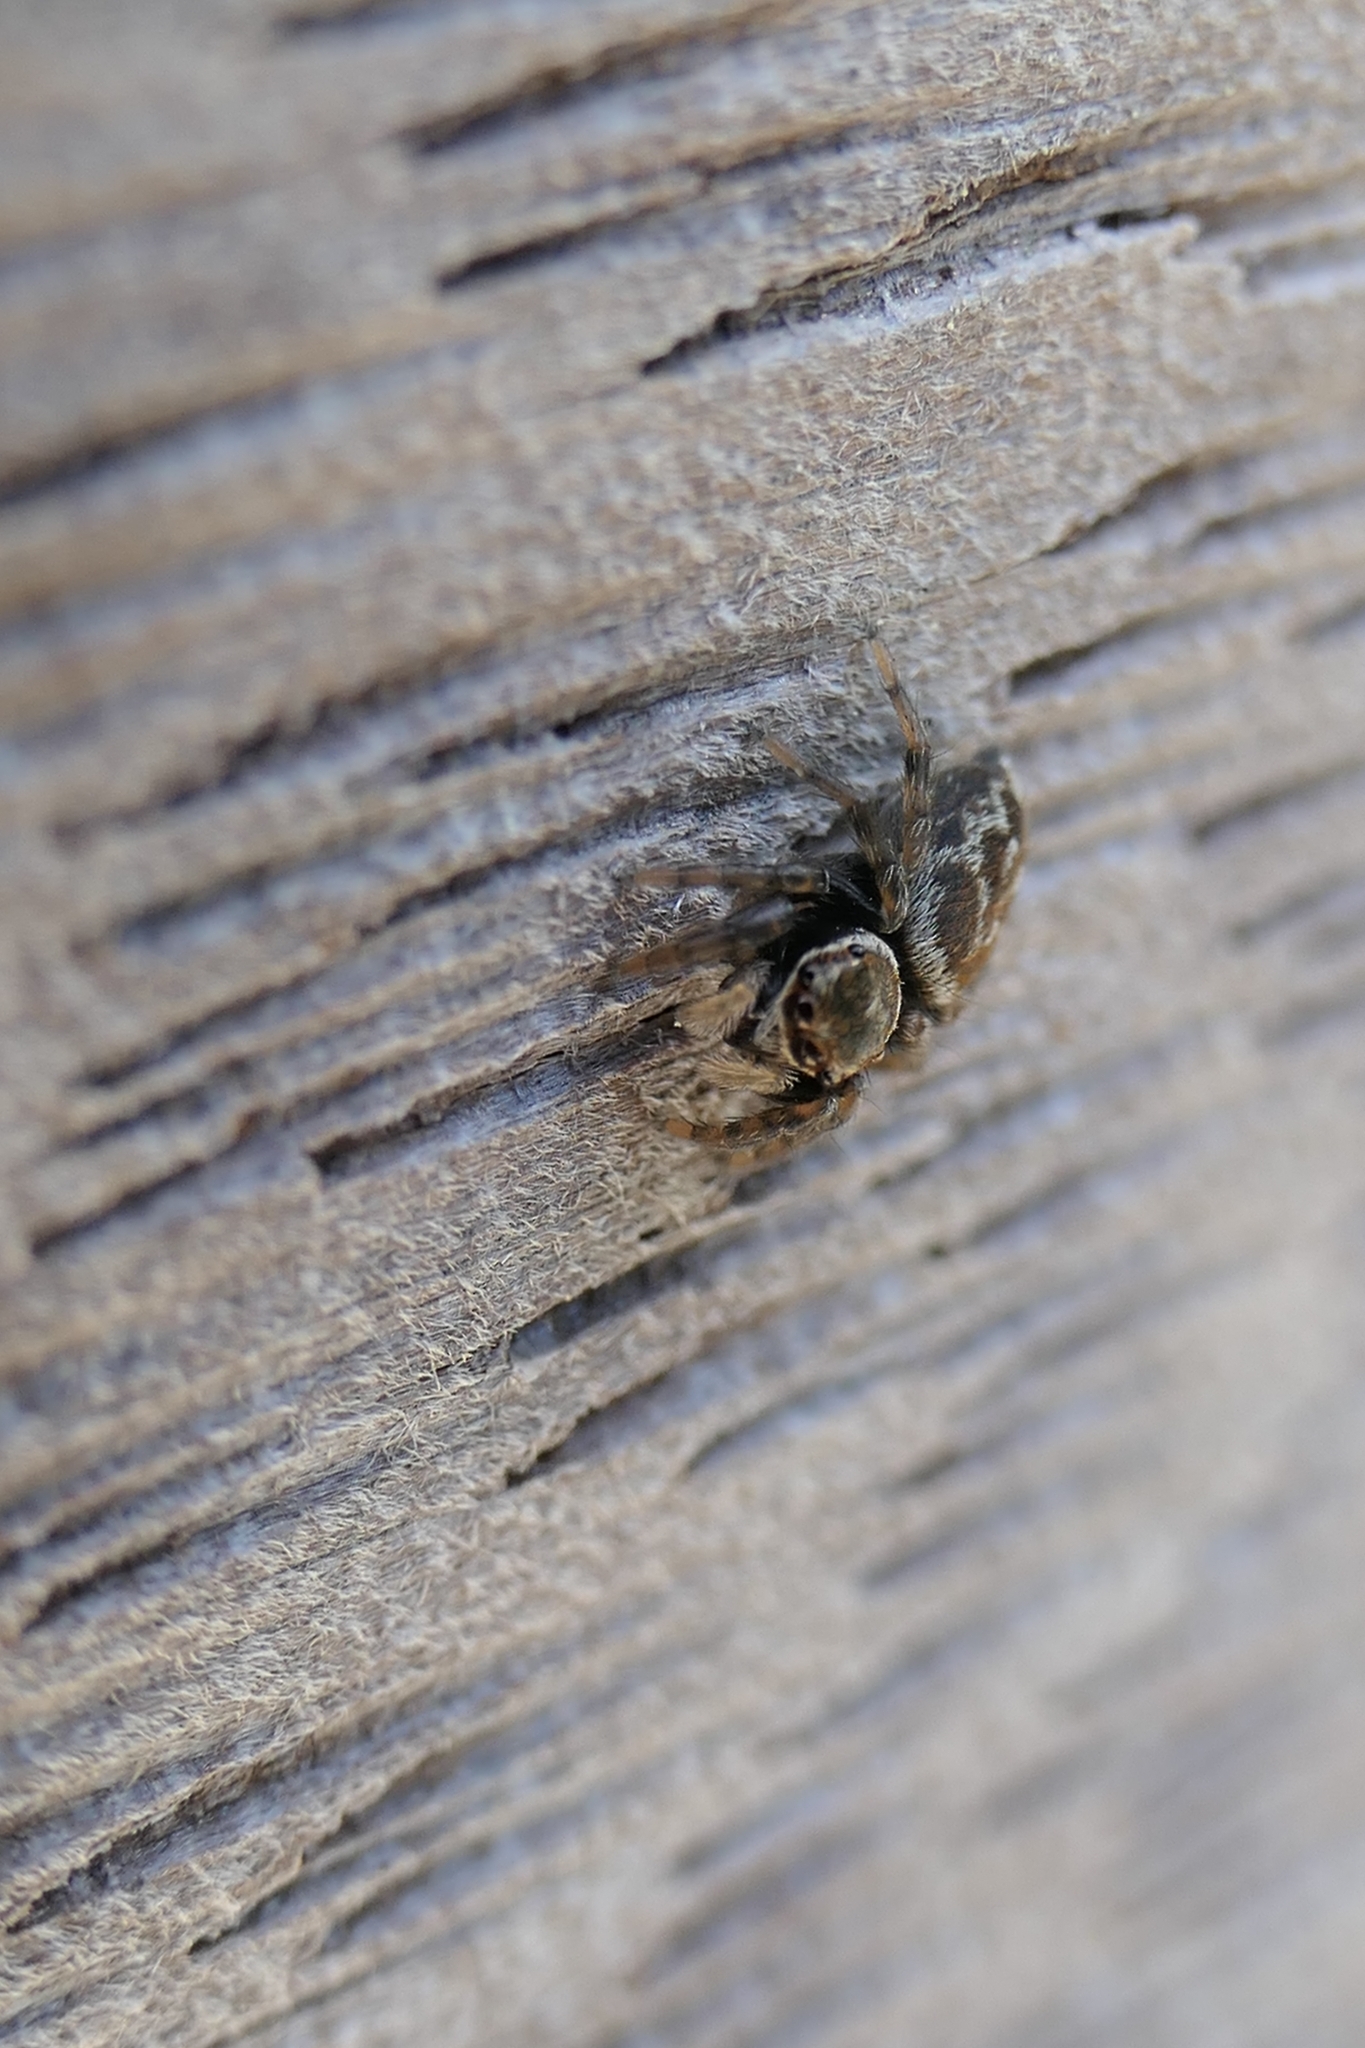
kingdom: Animalia
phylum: Arthropoda
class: Arachnida
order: Araneae
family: Salticidae
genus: Maratus
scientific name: Maratus griseus
